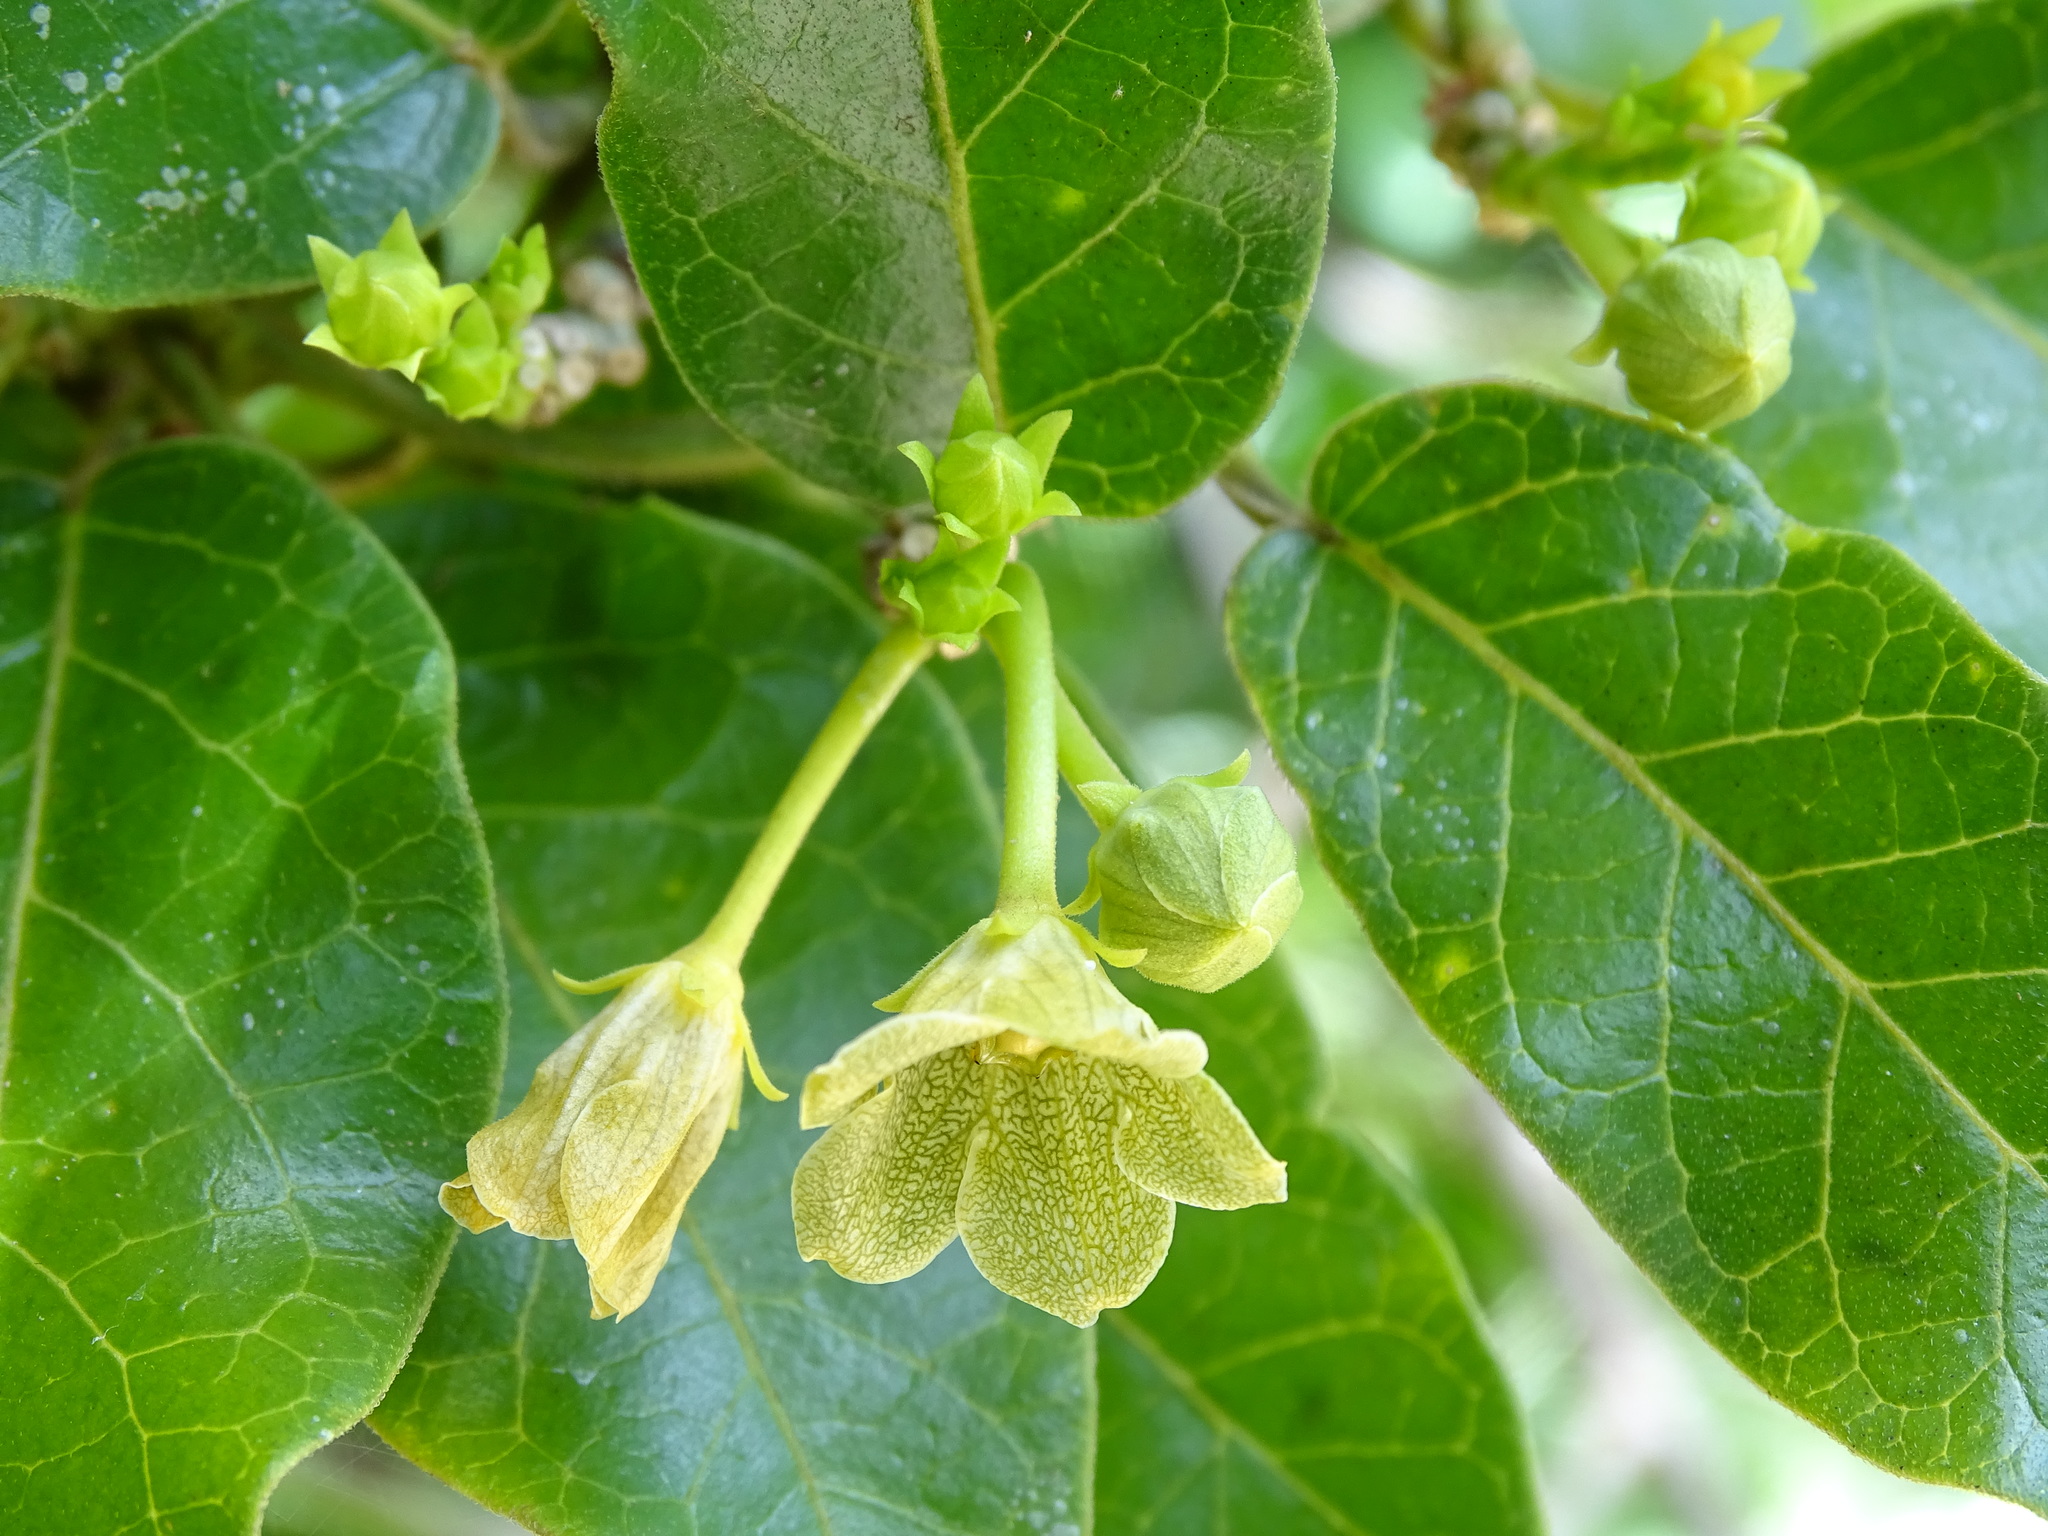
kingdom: Plantae
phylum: Tracheophyta
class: Magnoliopsida
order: Gentianales
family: Apocynaceae
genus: Matelea
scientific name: Matelea crassifolia
